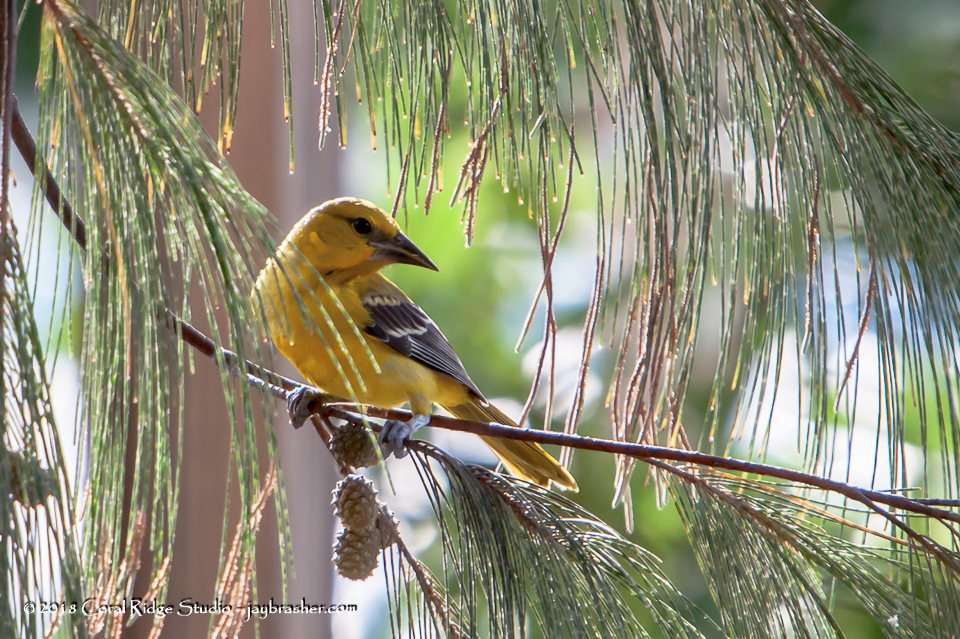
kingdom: Animalia
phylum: Chordata
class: Aves
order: Passeriformes
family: Icteridae
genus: Icterus
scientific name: Icterus nigrogularis
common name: Yellow oriole
